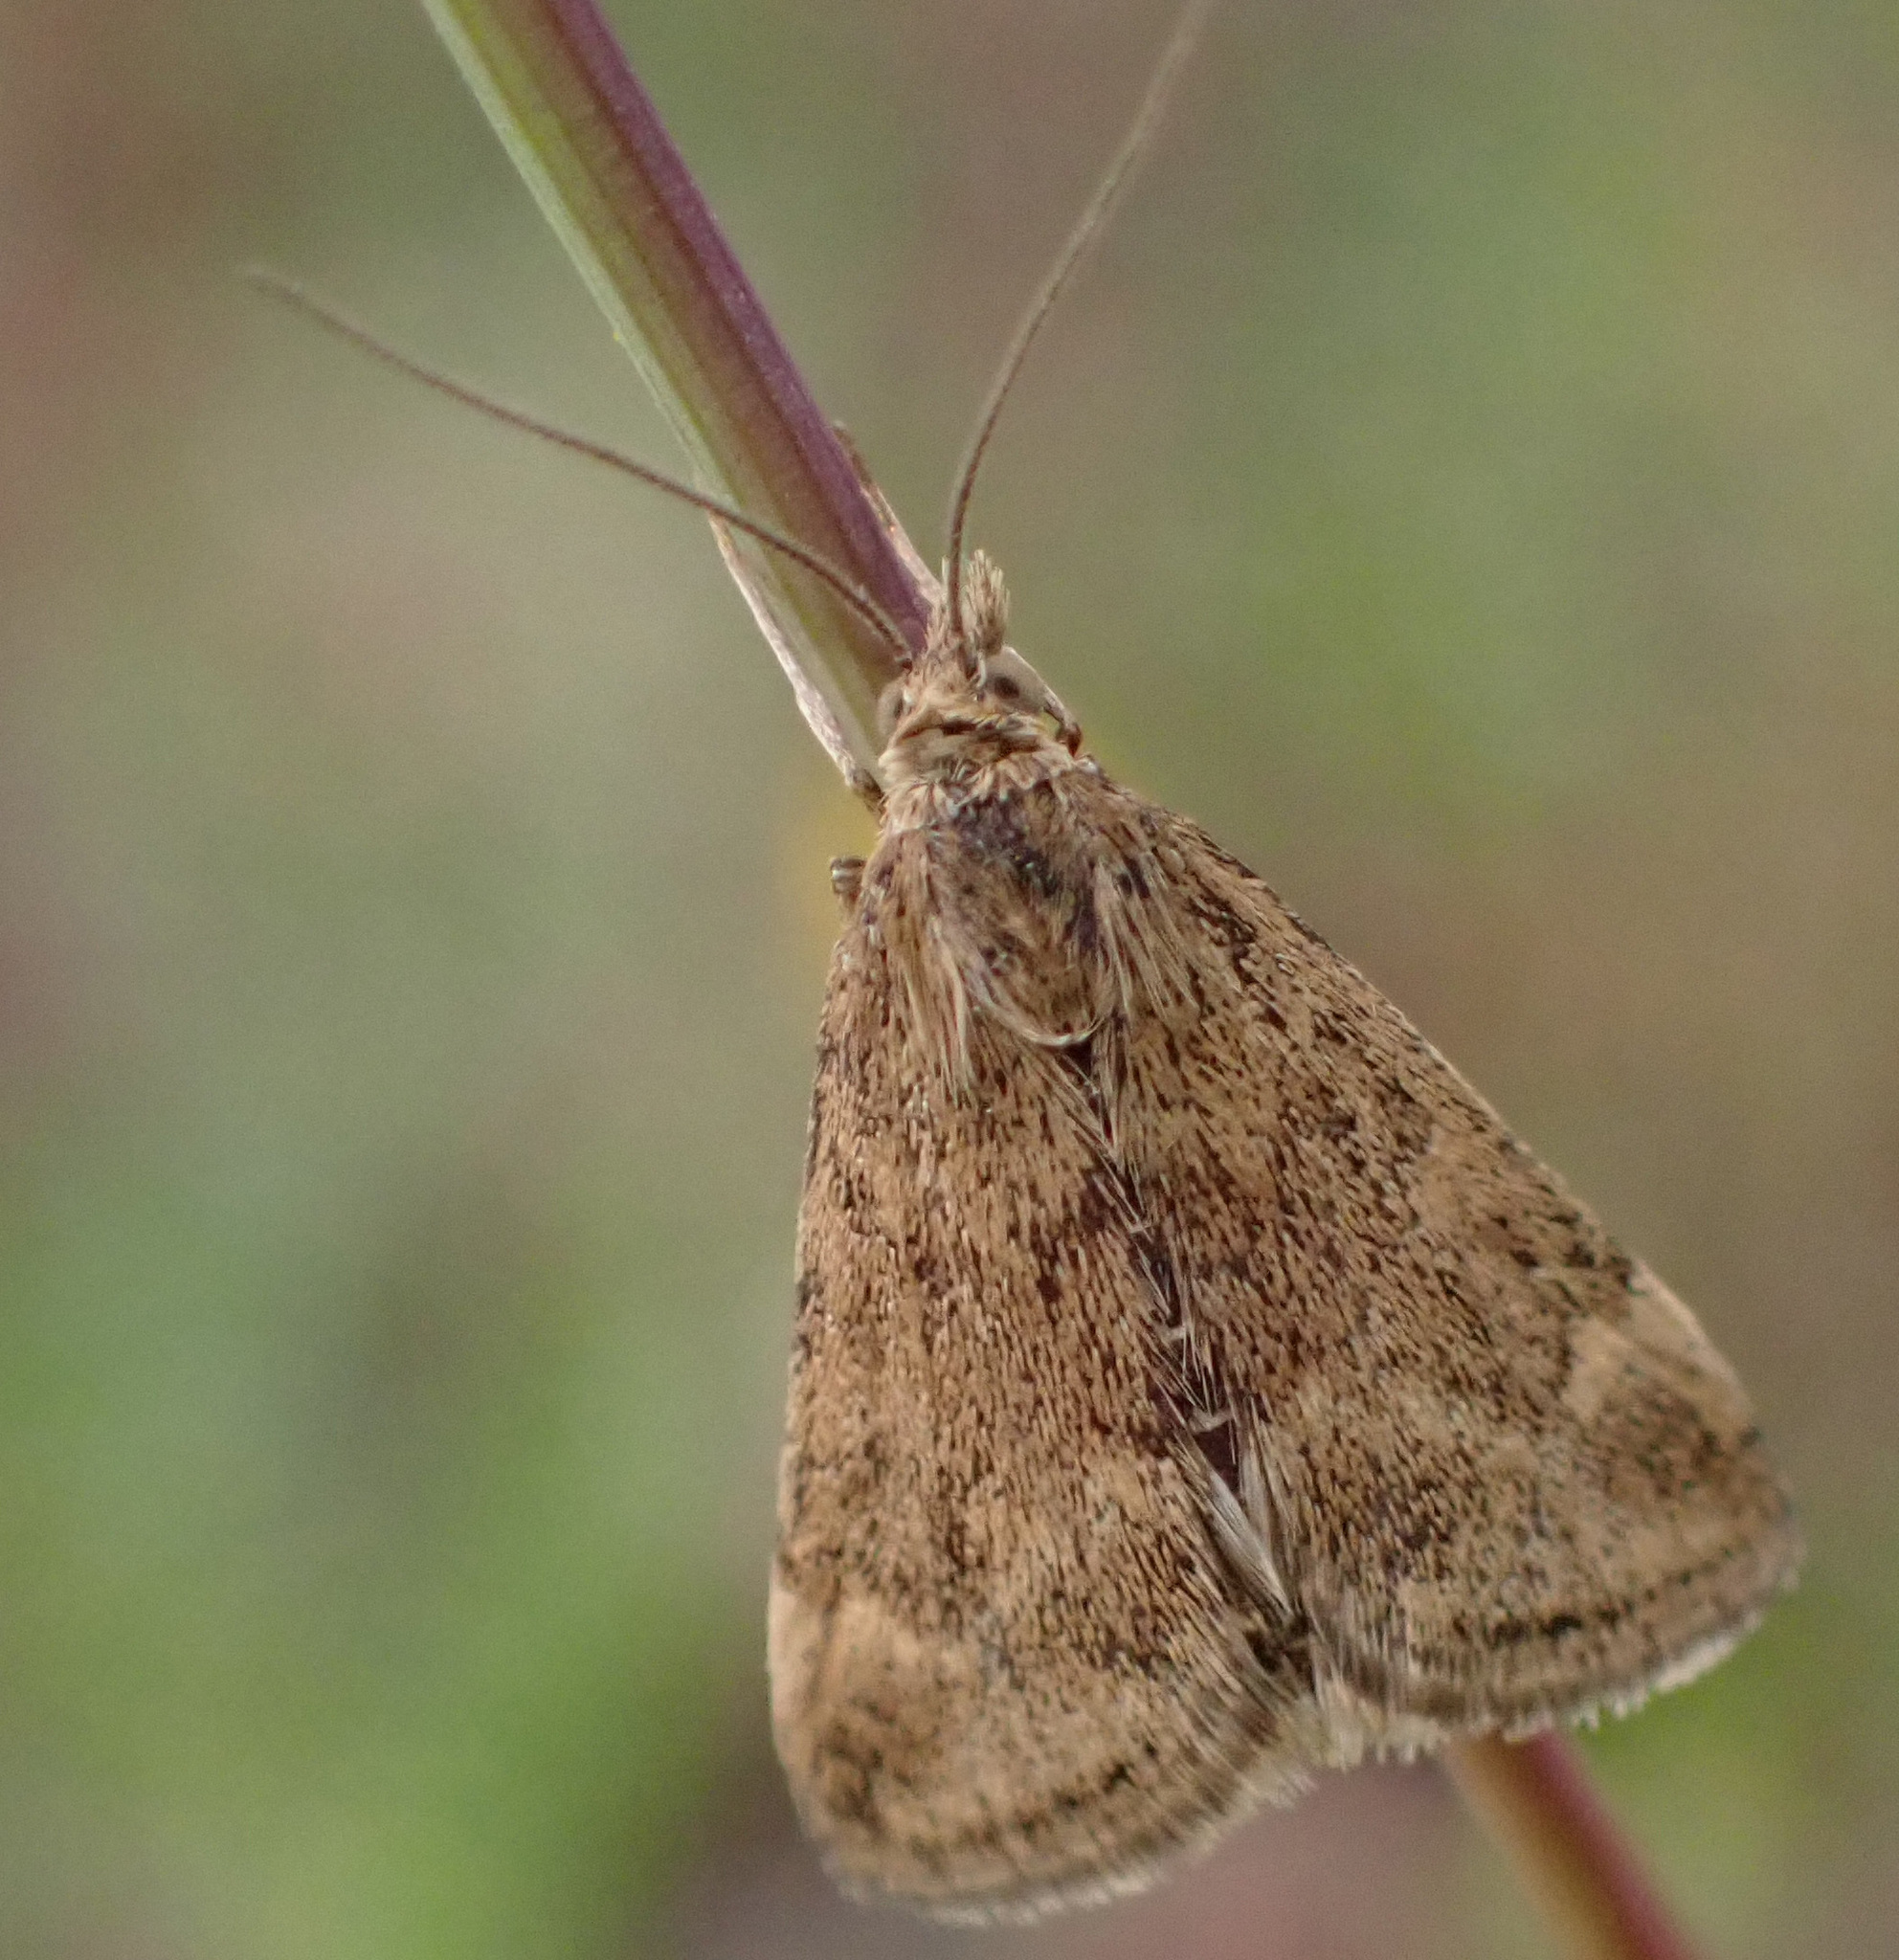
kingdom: Animalia
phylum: Arthropoda
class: Insecta
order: Lepidoptera
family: Crambidae
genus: Pyrausta
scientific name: Pyrausta despicata
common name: Straw-barred pearl
